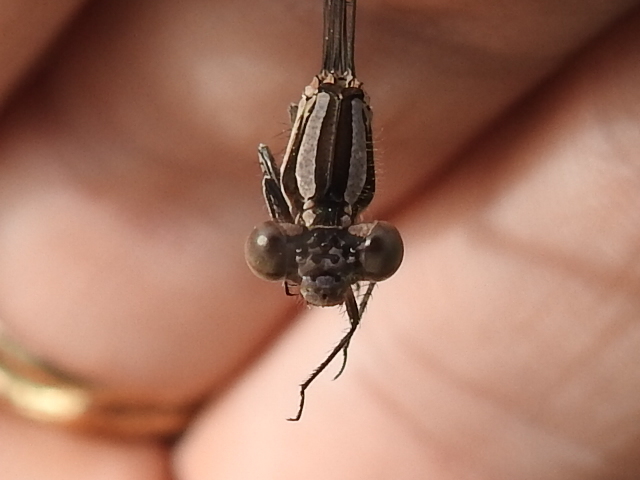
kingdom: Animalia
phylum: Arthropoda
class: Insecta
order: Odonata
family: Coenagrionidae
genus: Argia
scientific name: Argia sedula
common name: Blue-ringed dancer
